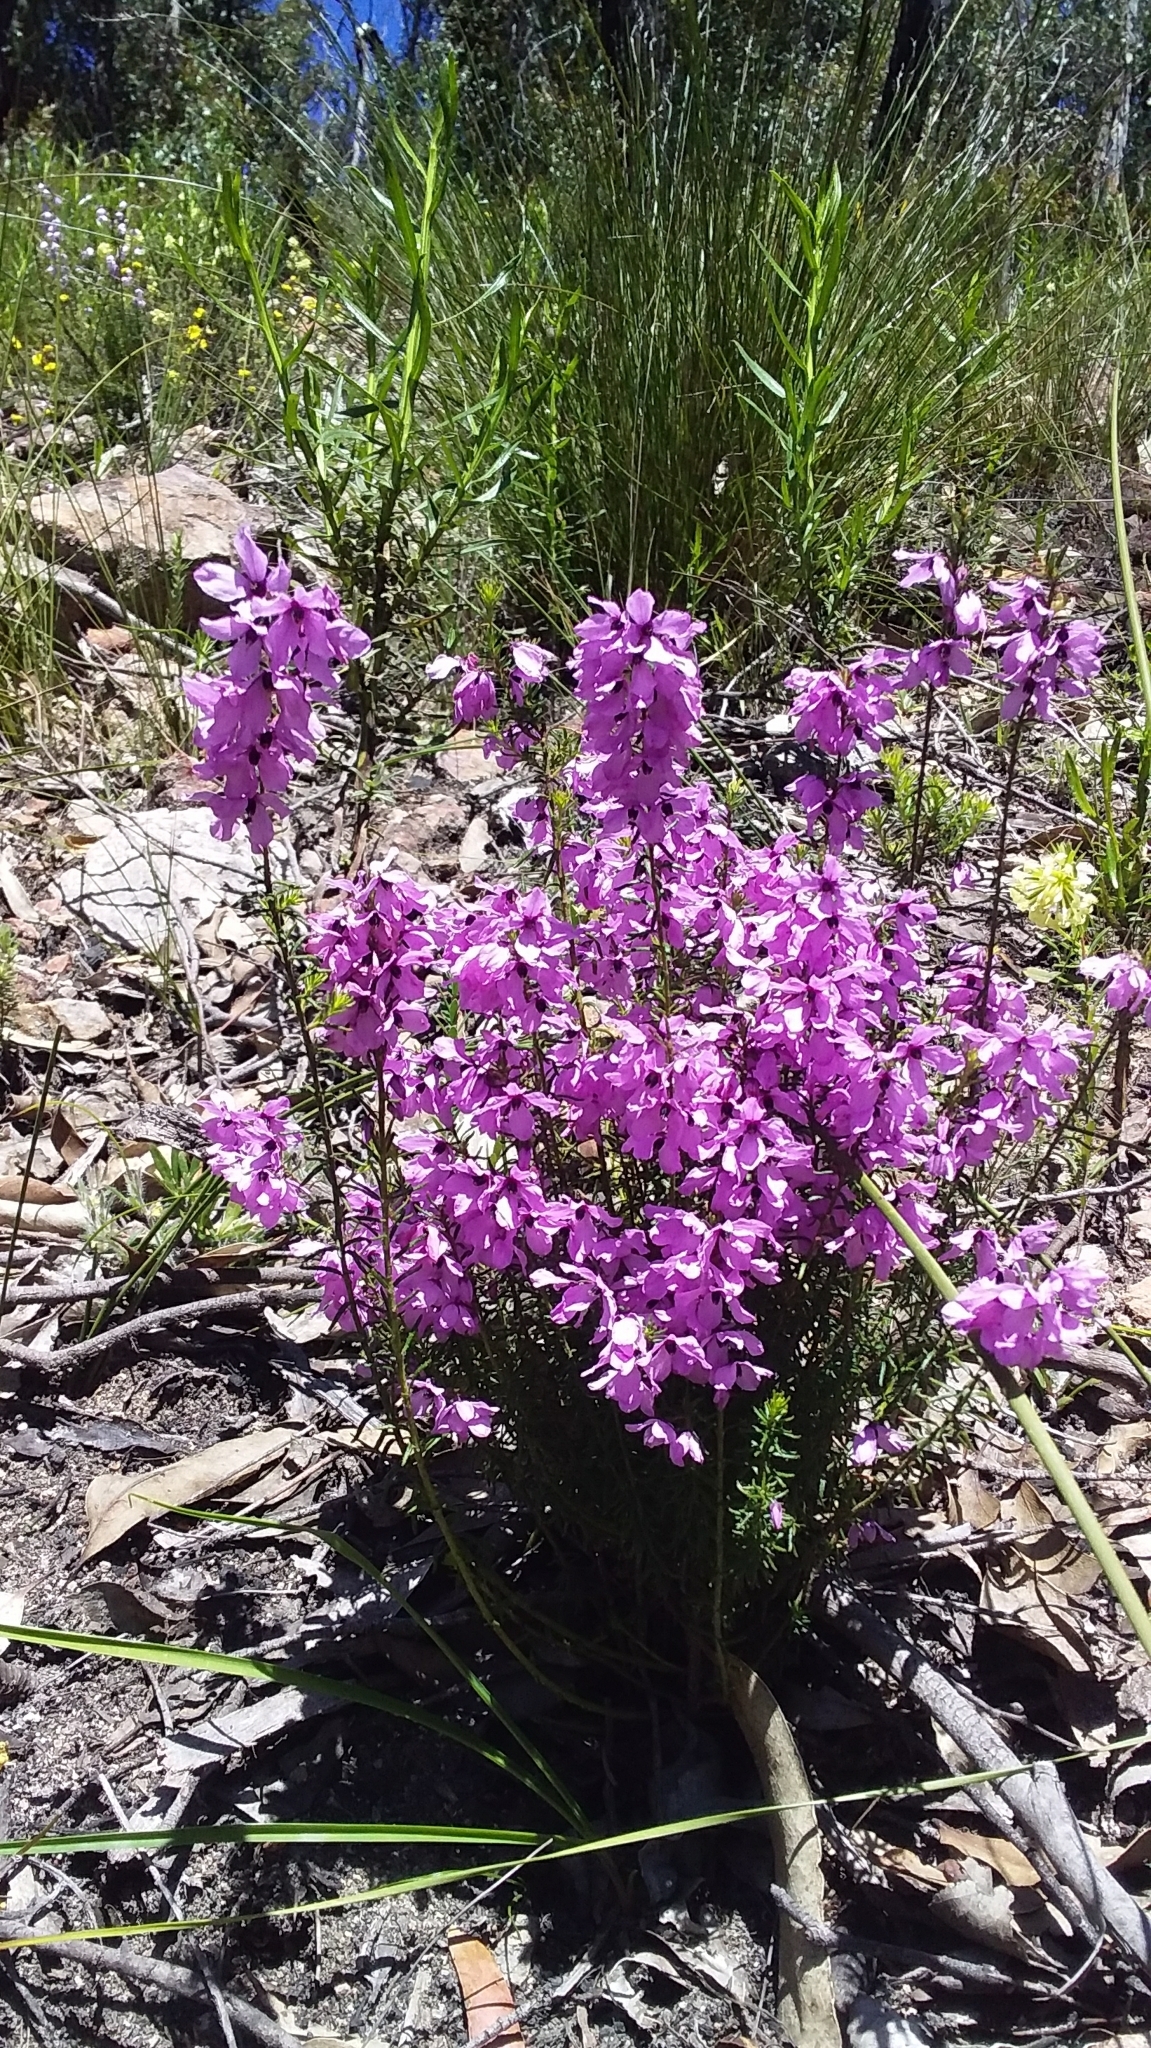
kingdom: Plantae
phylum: Tracheophyta
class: Magnoliopsida
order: Oxalidales
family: Elaeocarpaceae
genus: Tetratheca
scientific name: Tetratheca pilosa
